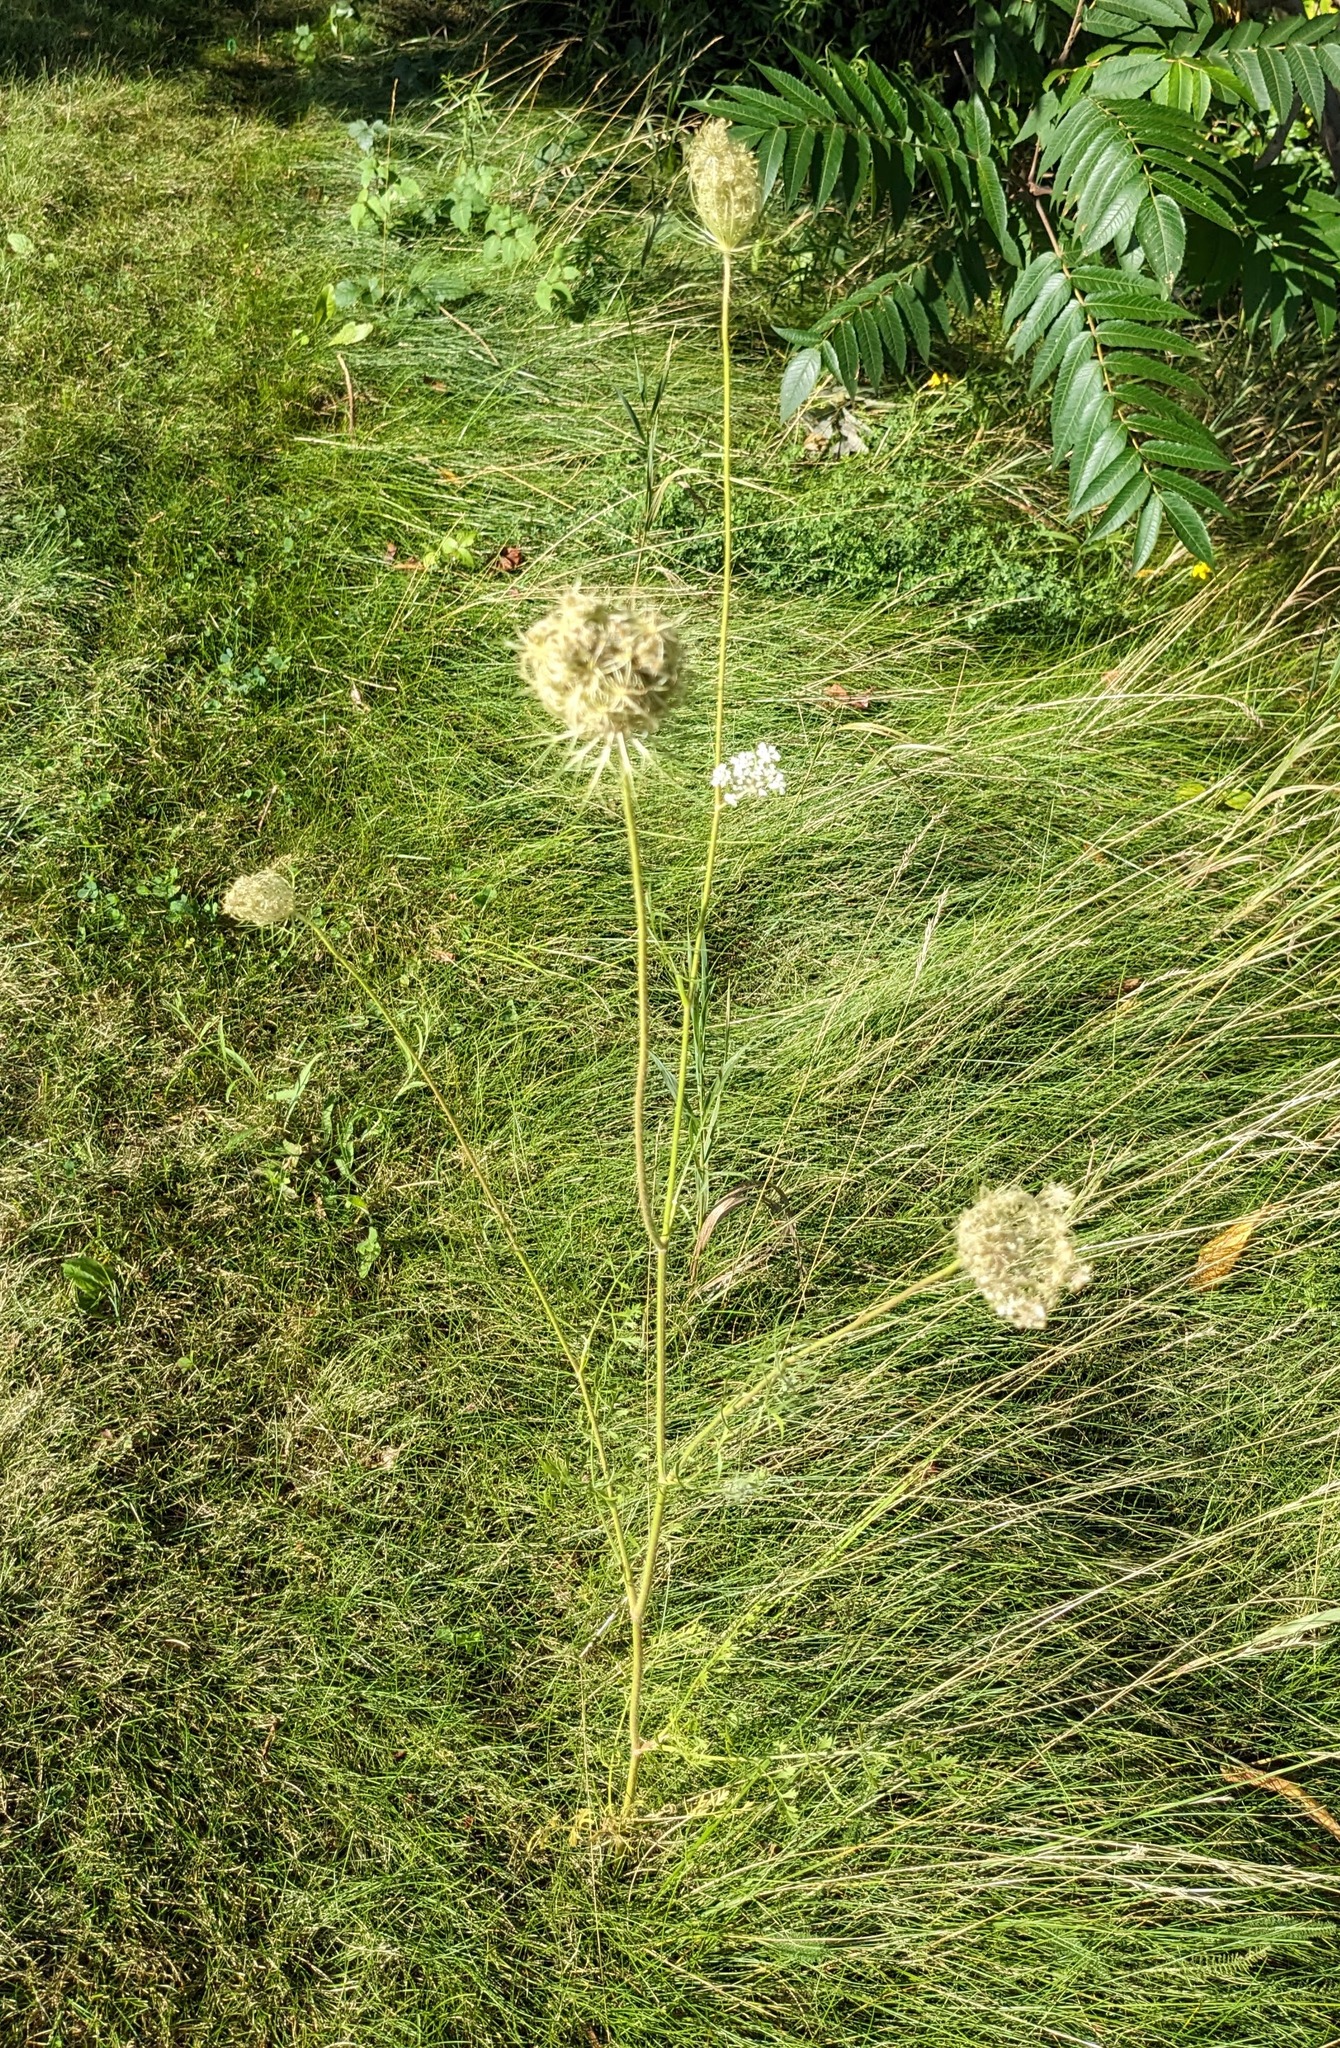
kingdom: Plantae
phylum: Tracheophyta
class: Magnoliopsida
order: Apiales
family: Apiaceae
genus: Daucus
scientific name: Daucus carota
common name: Wild carrot
